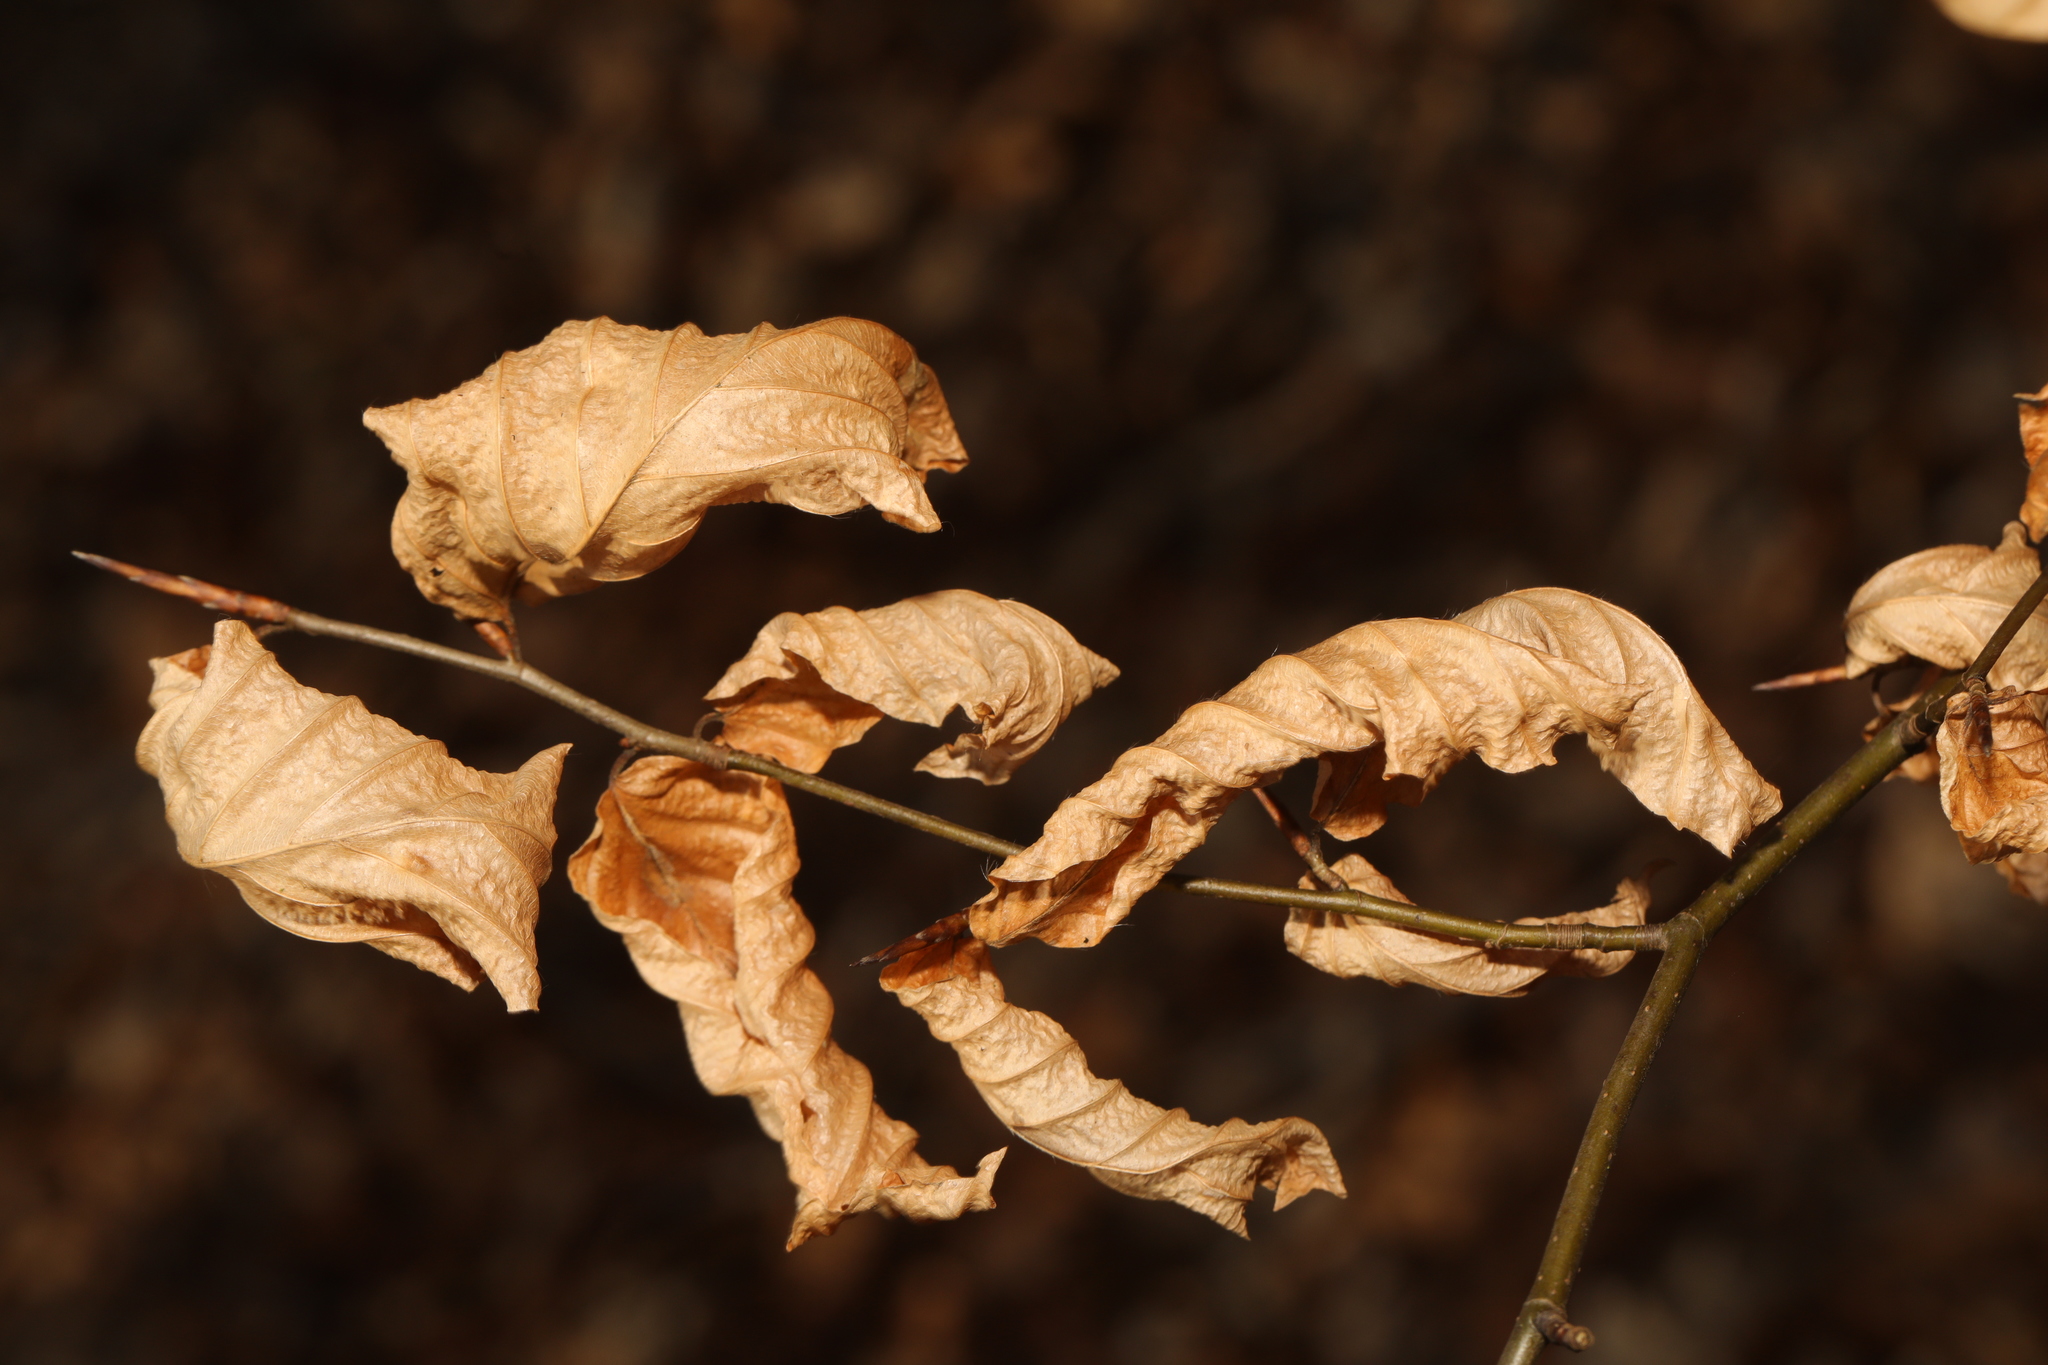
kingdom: Plantae
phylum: Tracheophyta
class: Magnoliopsida
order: Fagales
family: Fagaceae
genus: Fagus
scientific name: Fagus sylvatica
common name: Beech
